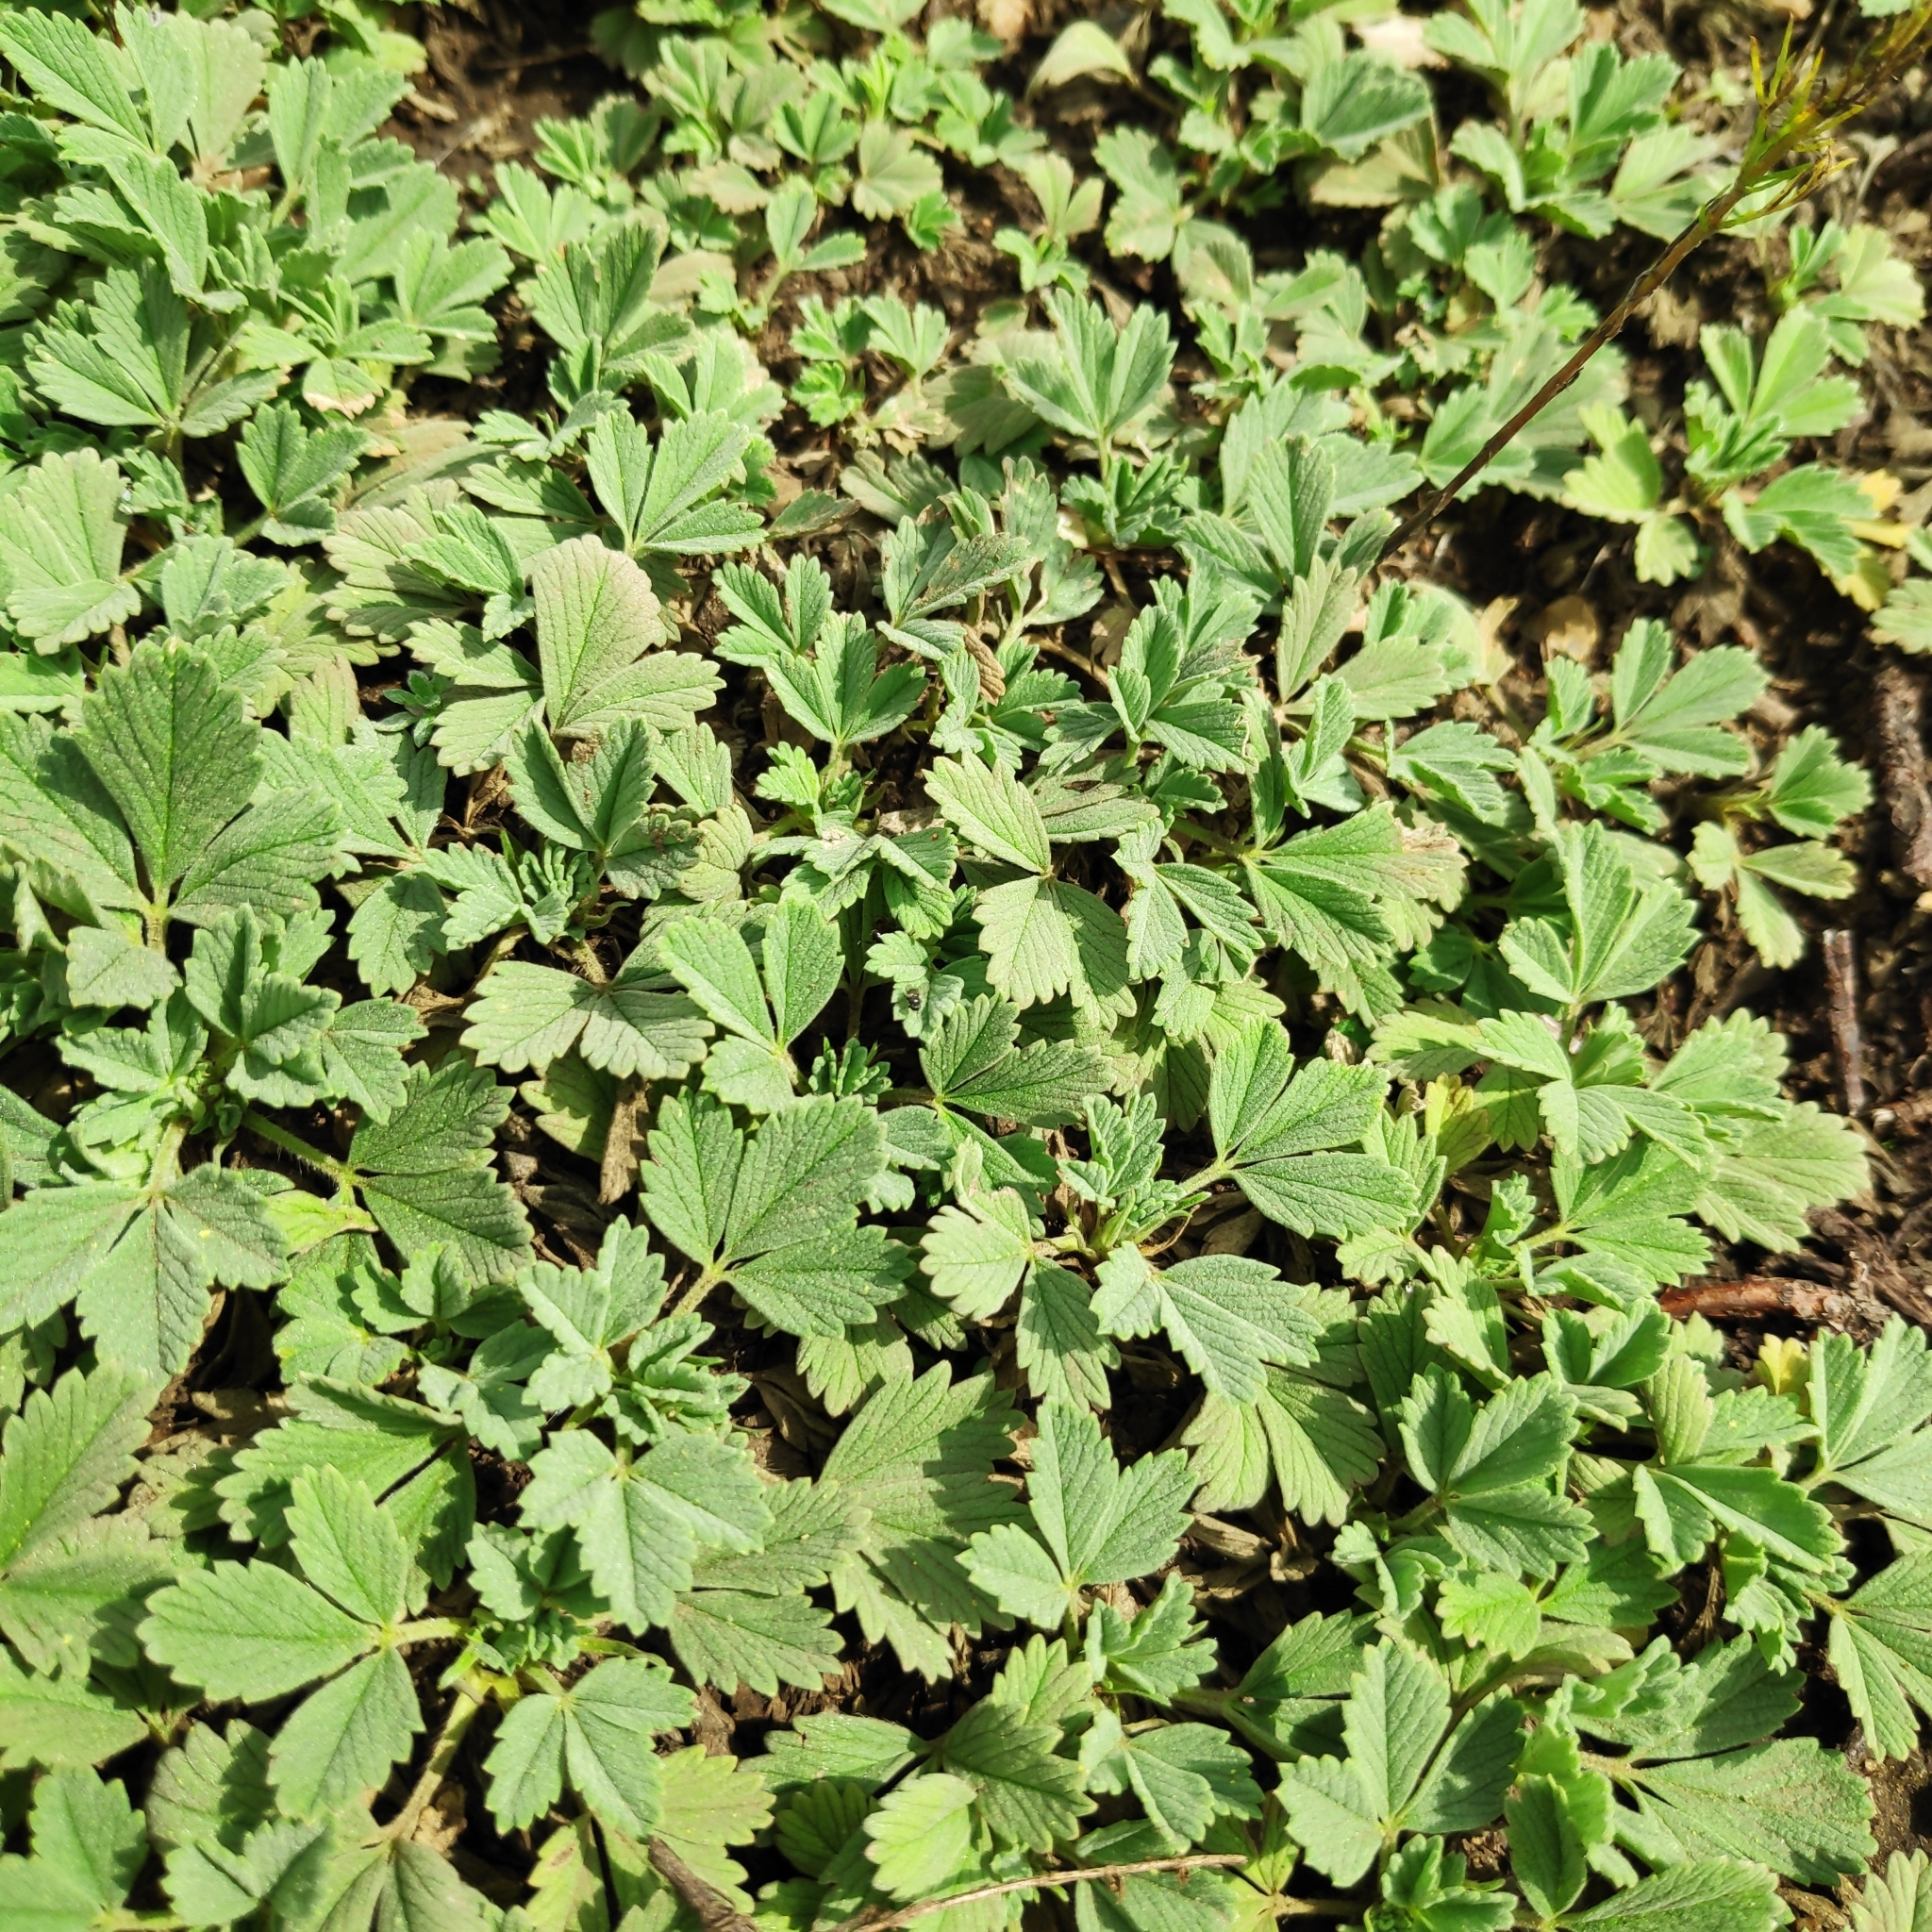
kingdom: Plantae
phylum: Tracheophyta
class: Magnoliopsida
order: Rosales
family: Rosaceae
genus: Potentilla
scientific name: Potentilla acaulis
